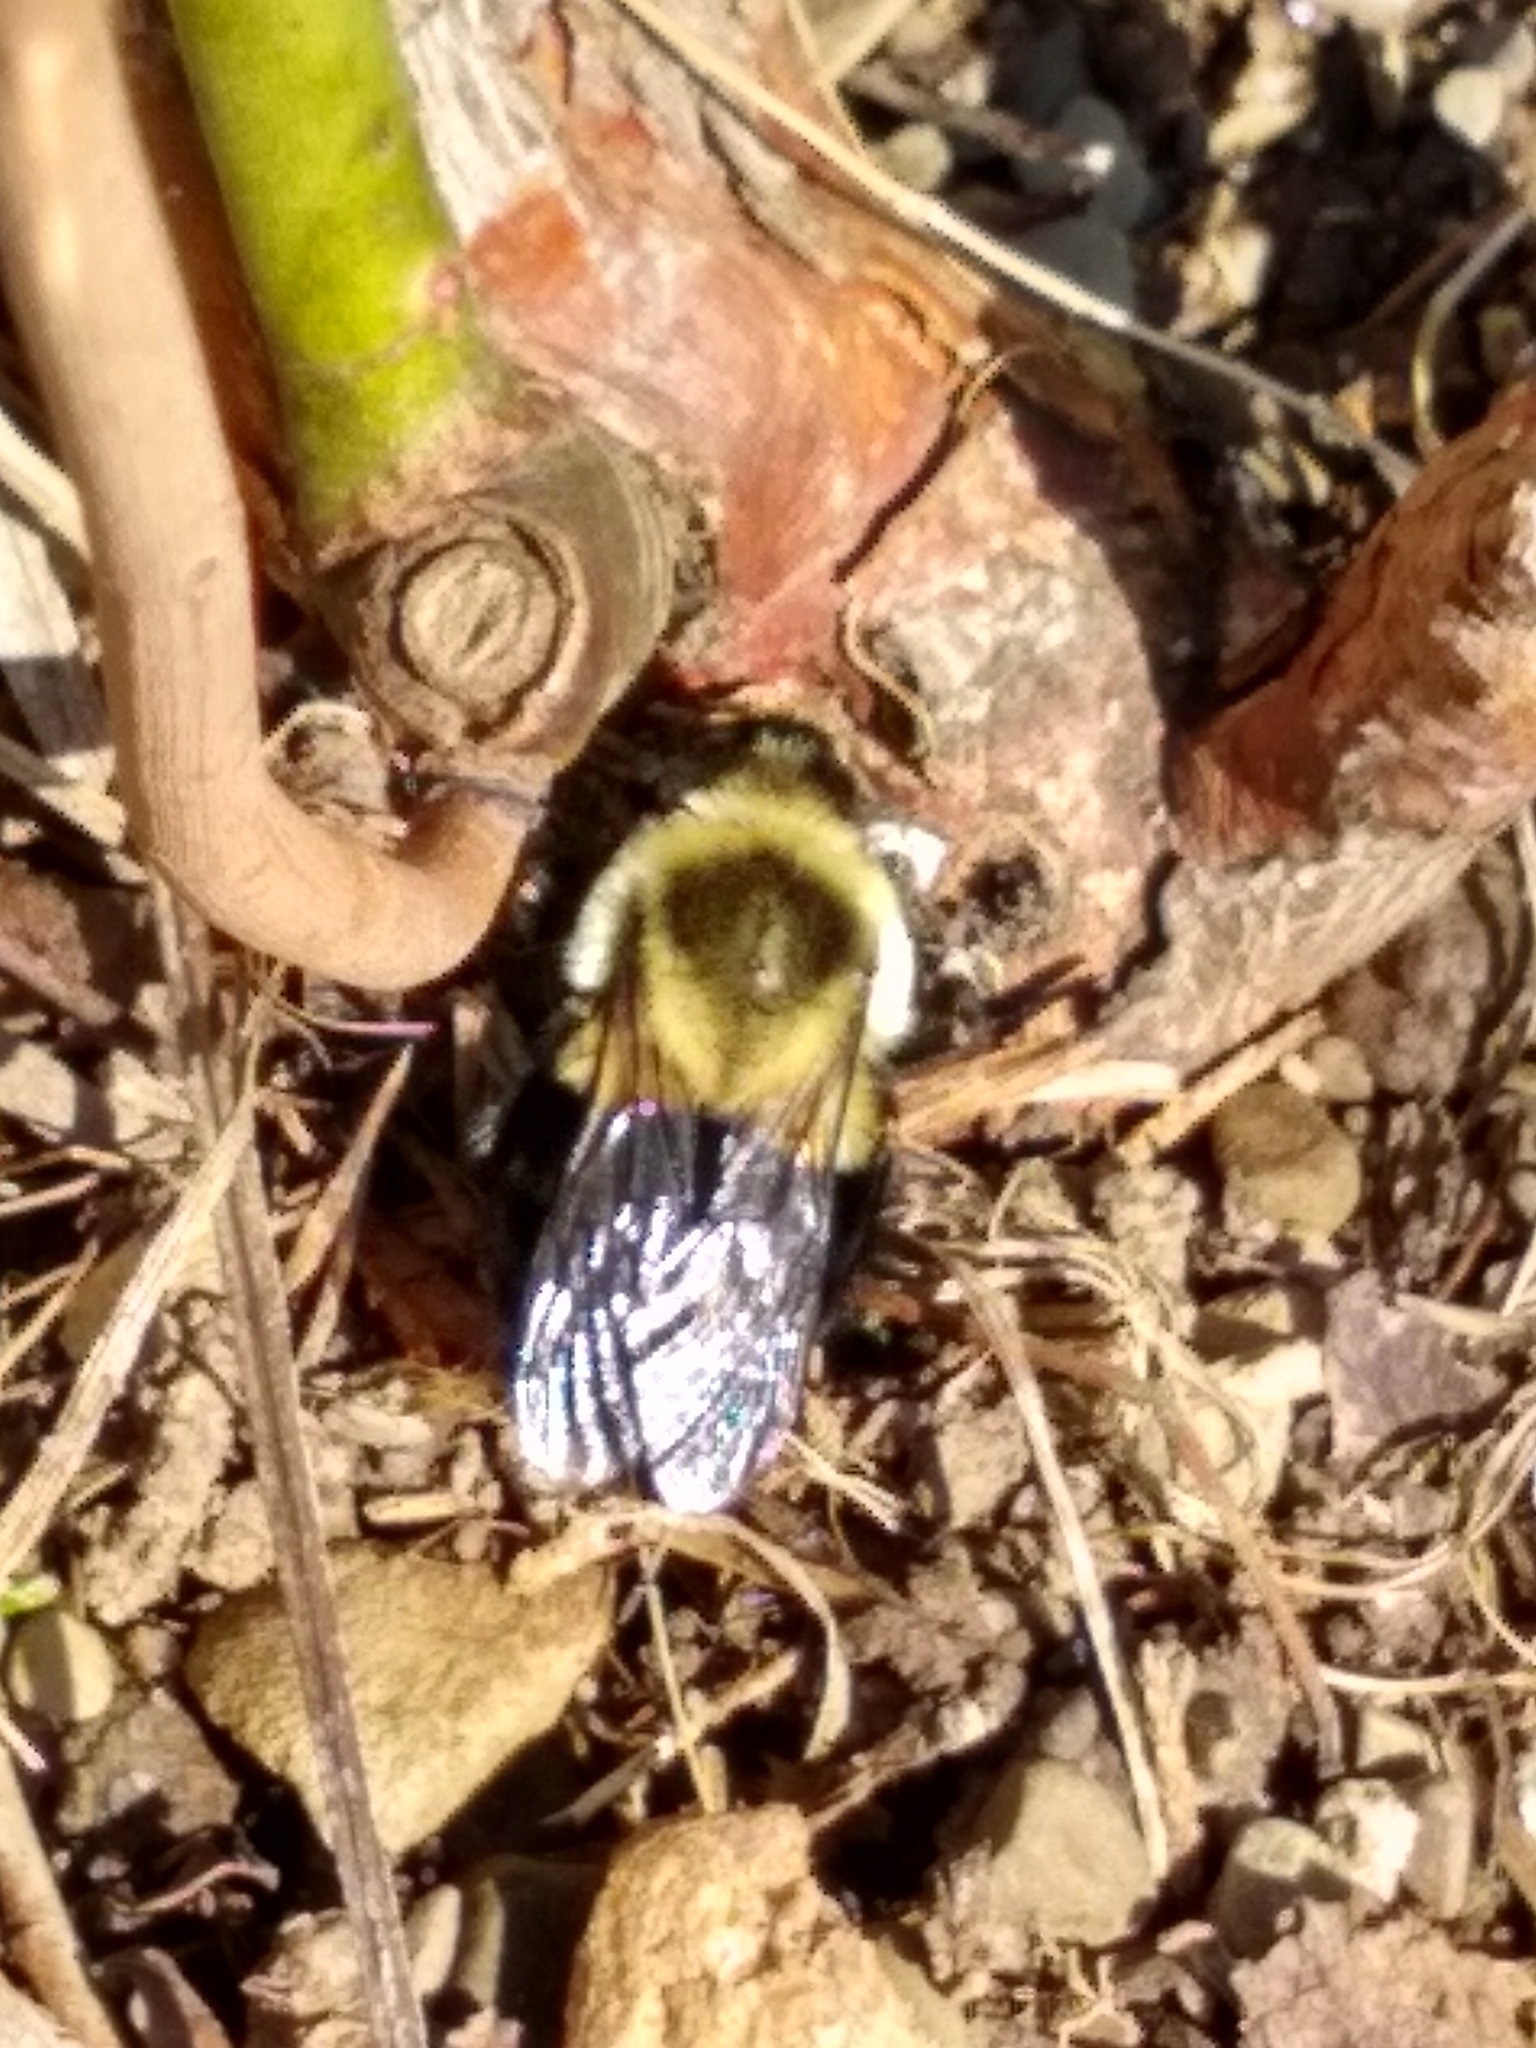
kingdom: Animalia
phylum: Arthropoda
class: Insecta
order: Hymenoptera
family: Apidae
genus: Bombus
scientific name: Bombus impatiens
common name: Common eastern bumble bee
